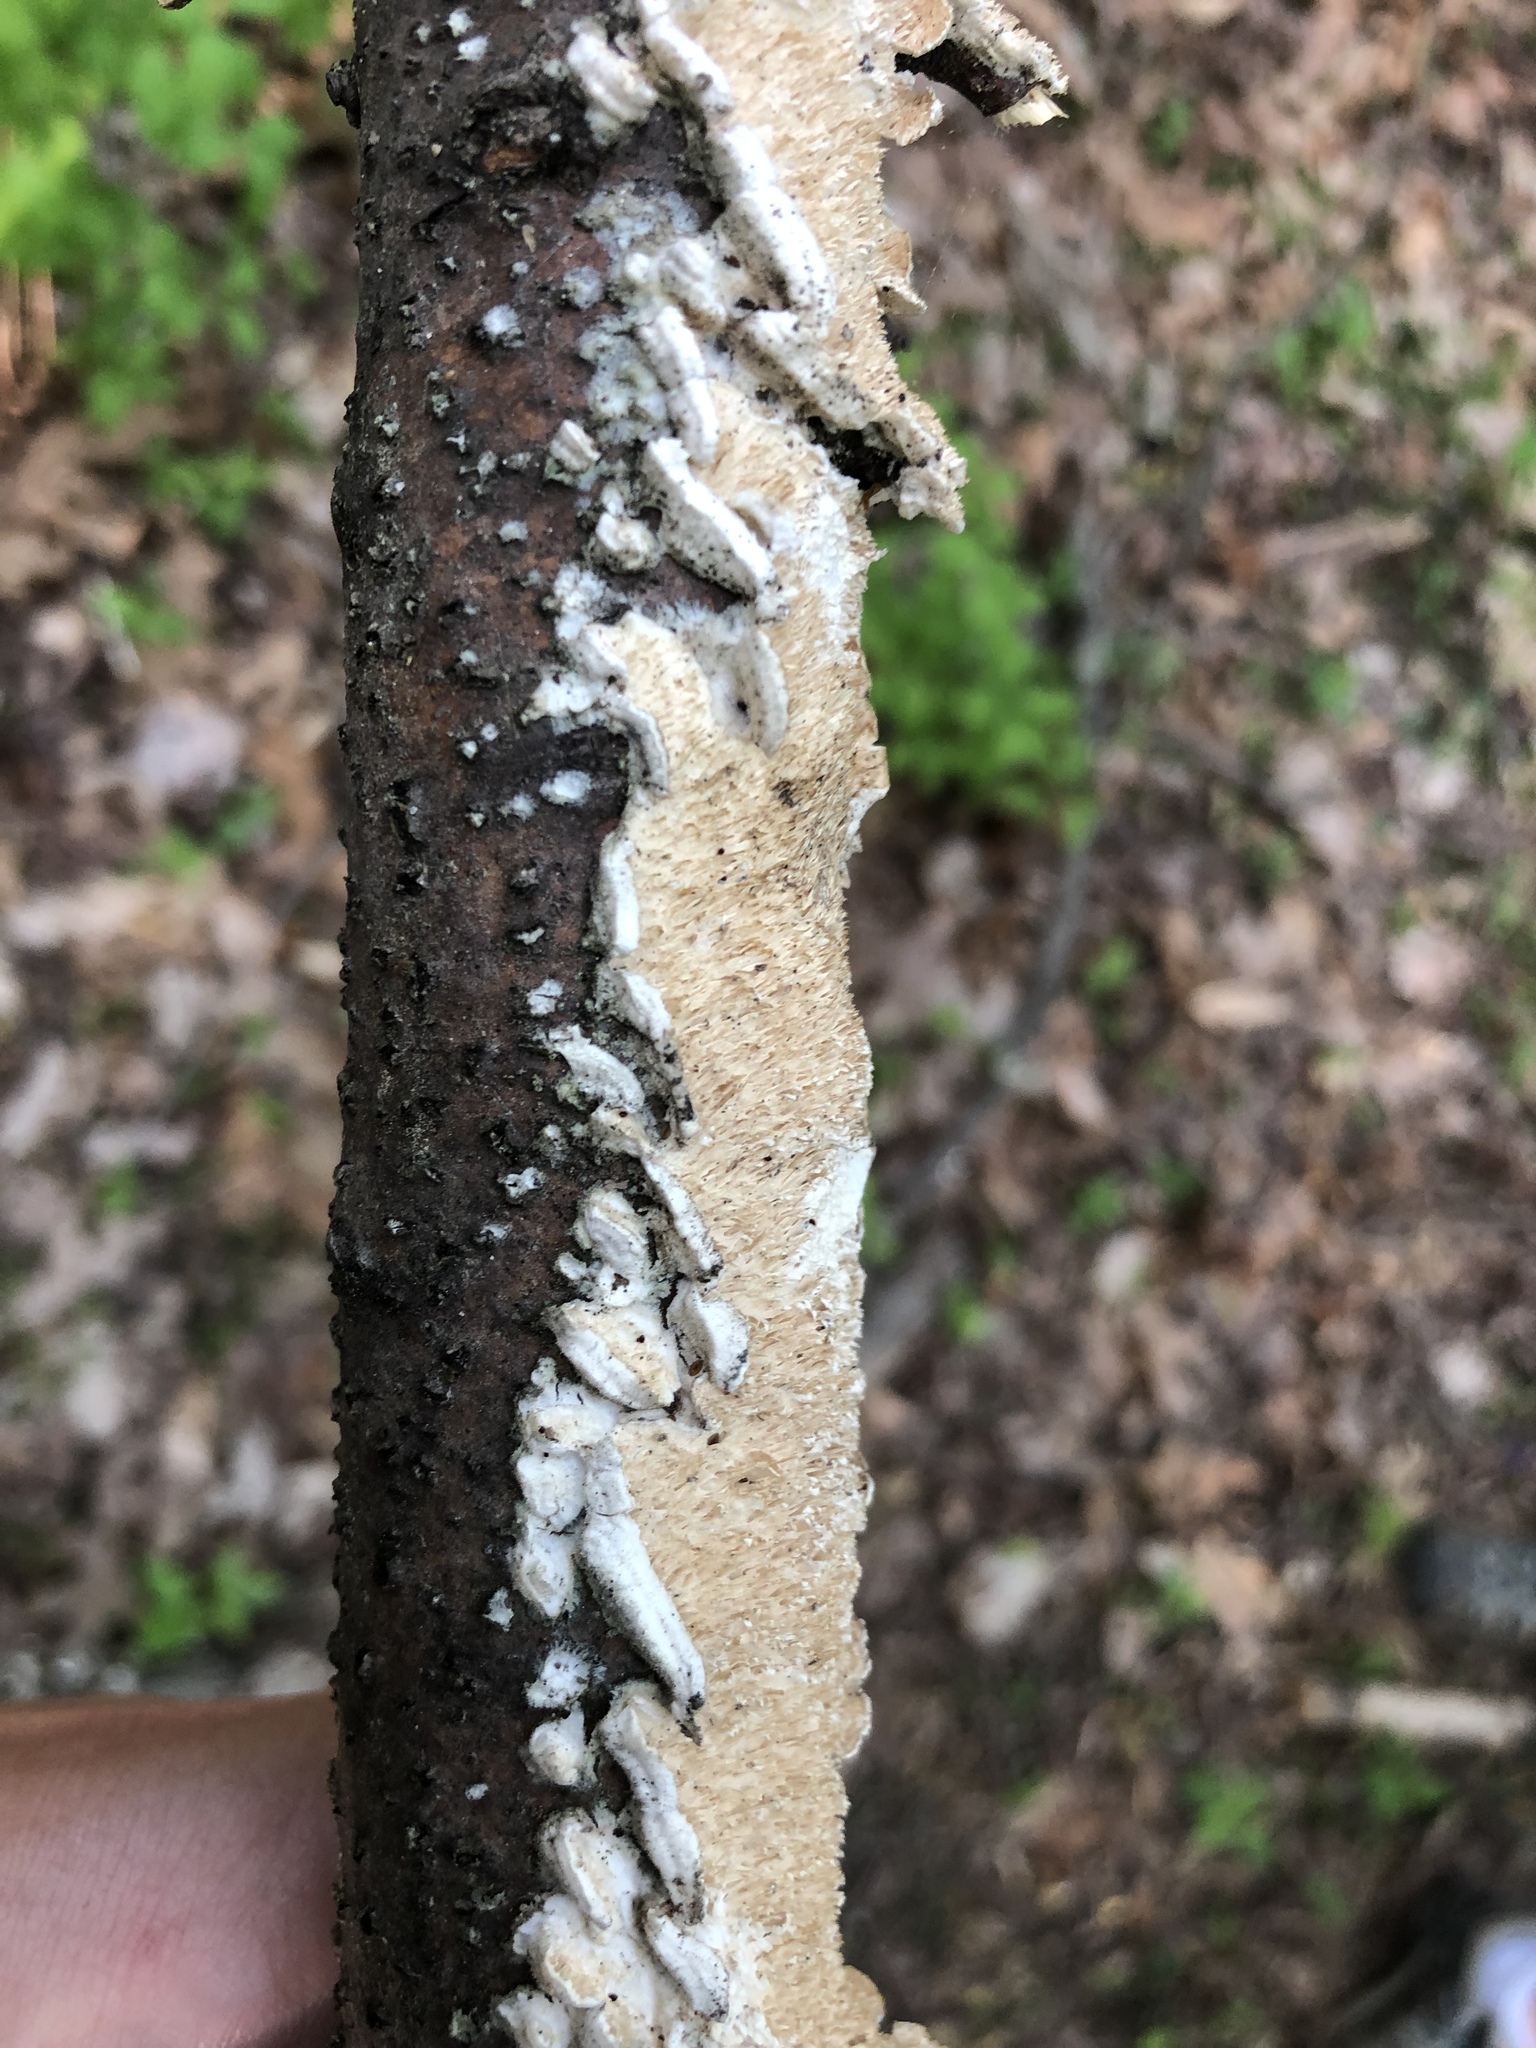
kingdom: Fungi
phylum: Basidiomycota
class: Agaricomycetes
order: Polyporales
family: Irpicaceae
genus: Irpex
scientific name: Irpex lacteus
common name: Milk-white toothed polypore
